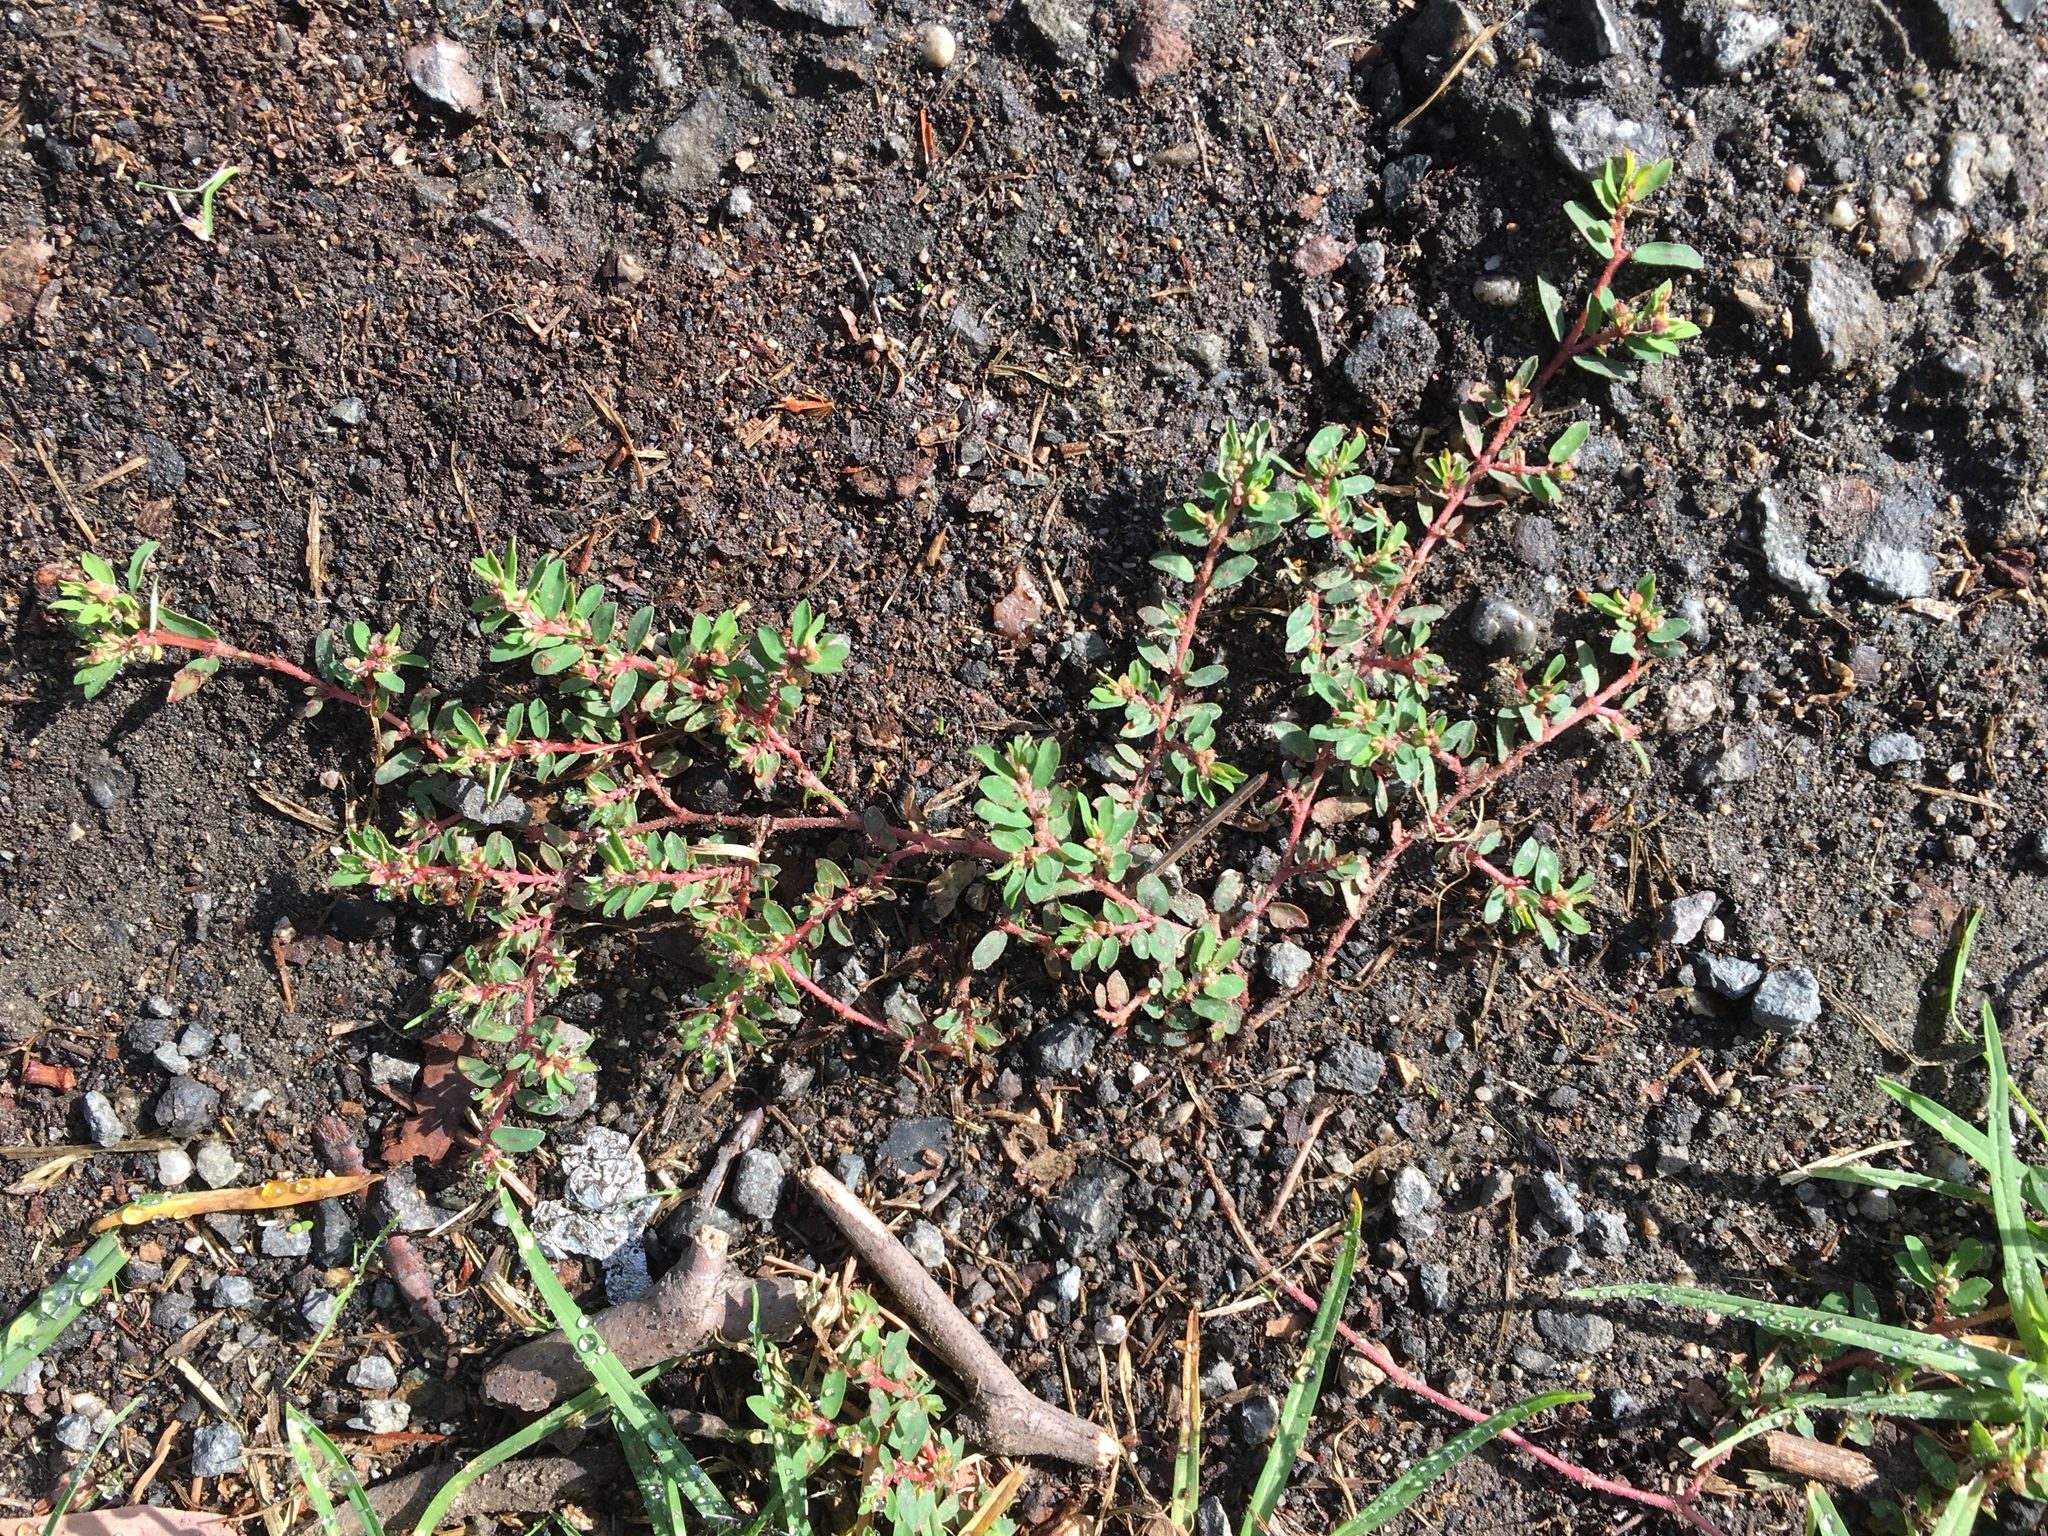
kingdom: Plantae
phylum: Tracheophyta
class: Magnoliopsida
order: Malpighiales
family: Euphorbiaceae
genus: Euphorbia
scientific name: Euphorbia maculata
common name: Spotted spurge
